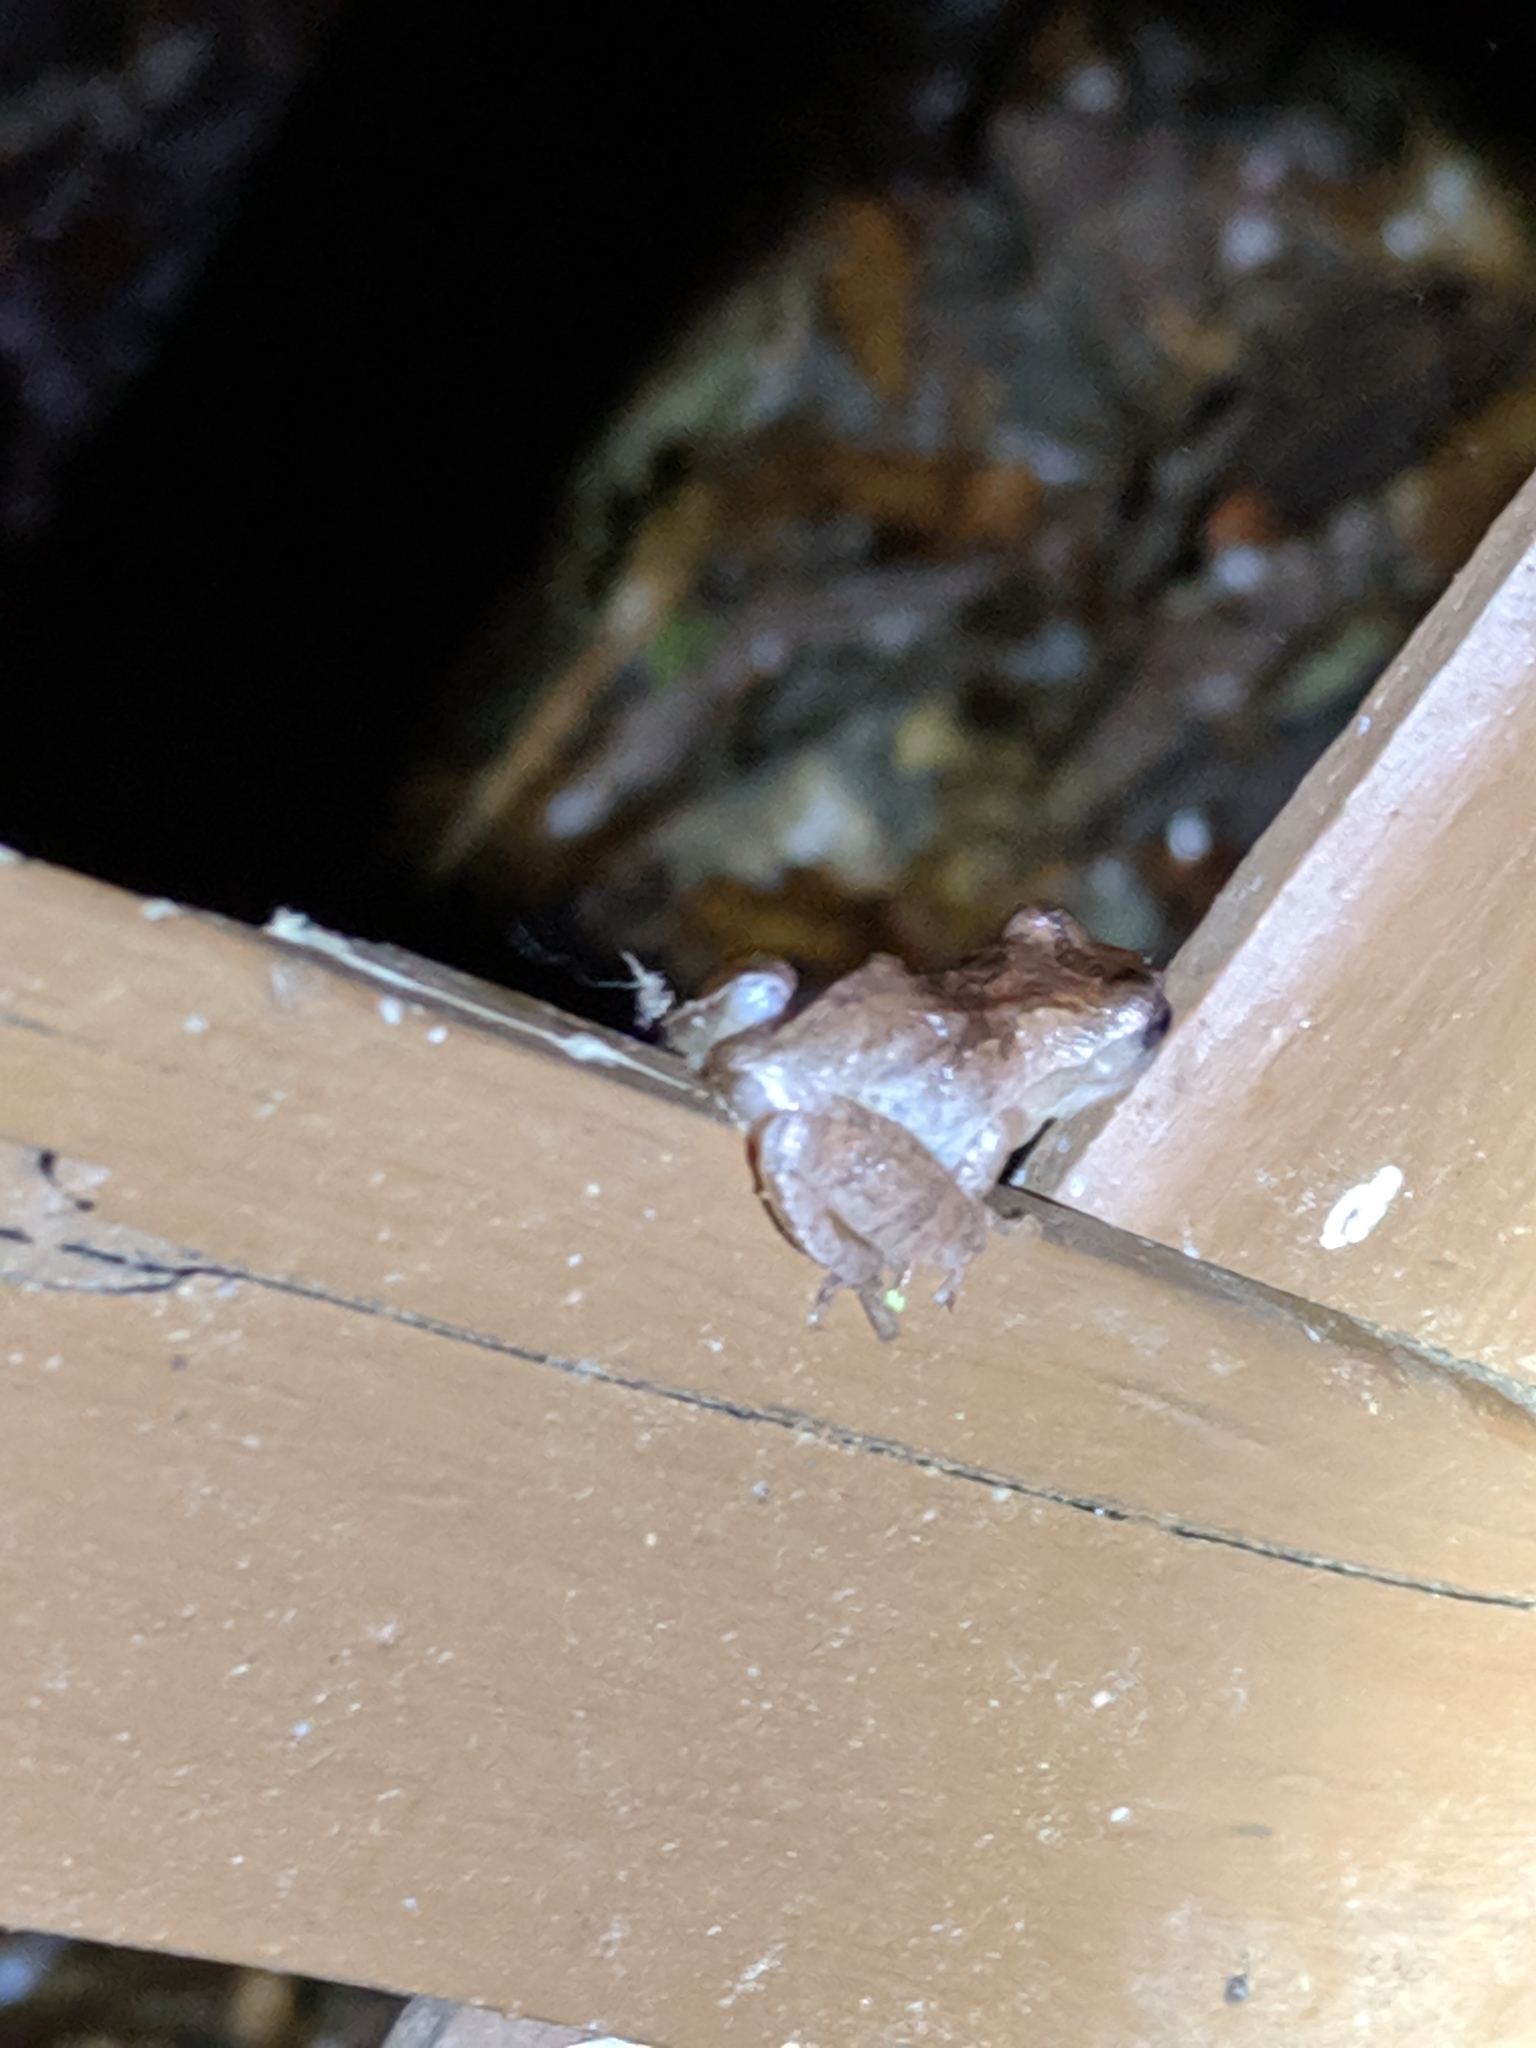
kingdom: Animalia
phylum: Chordata
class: Amphibia
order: Anura
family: Hylidae
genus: Pseudacris
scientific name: Pseudacris crucifer
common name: Spring peeper
